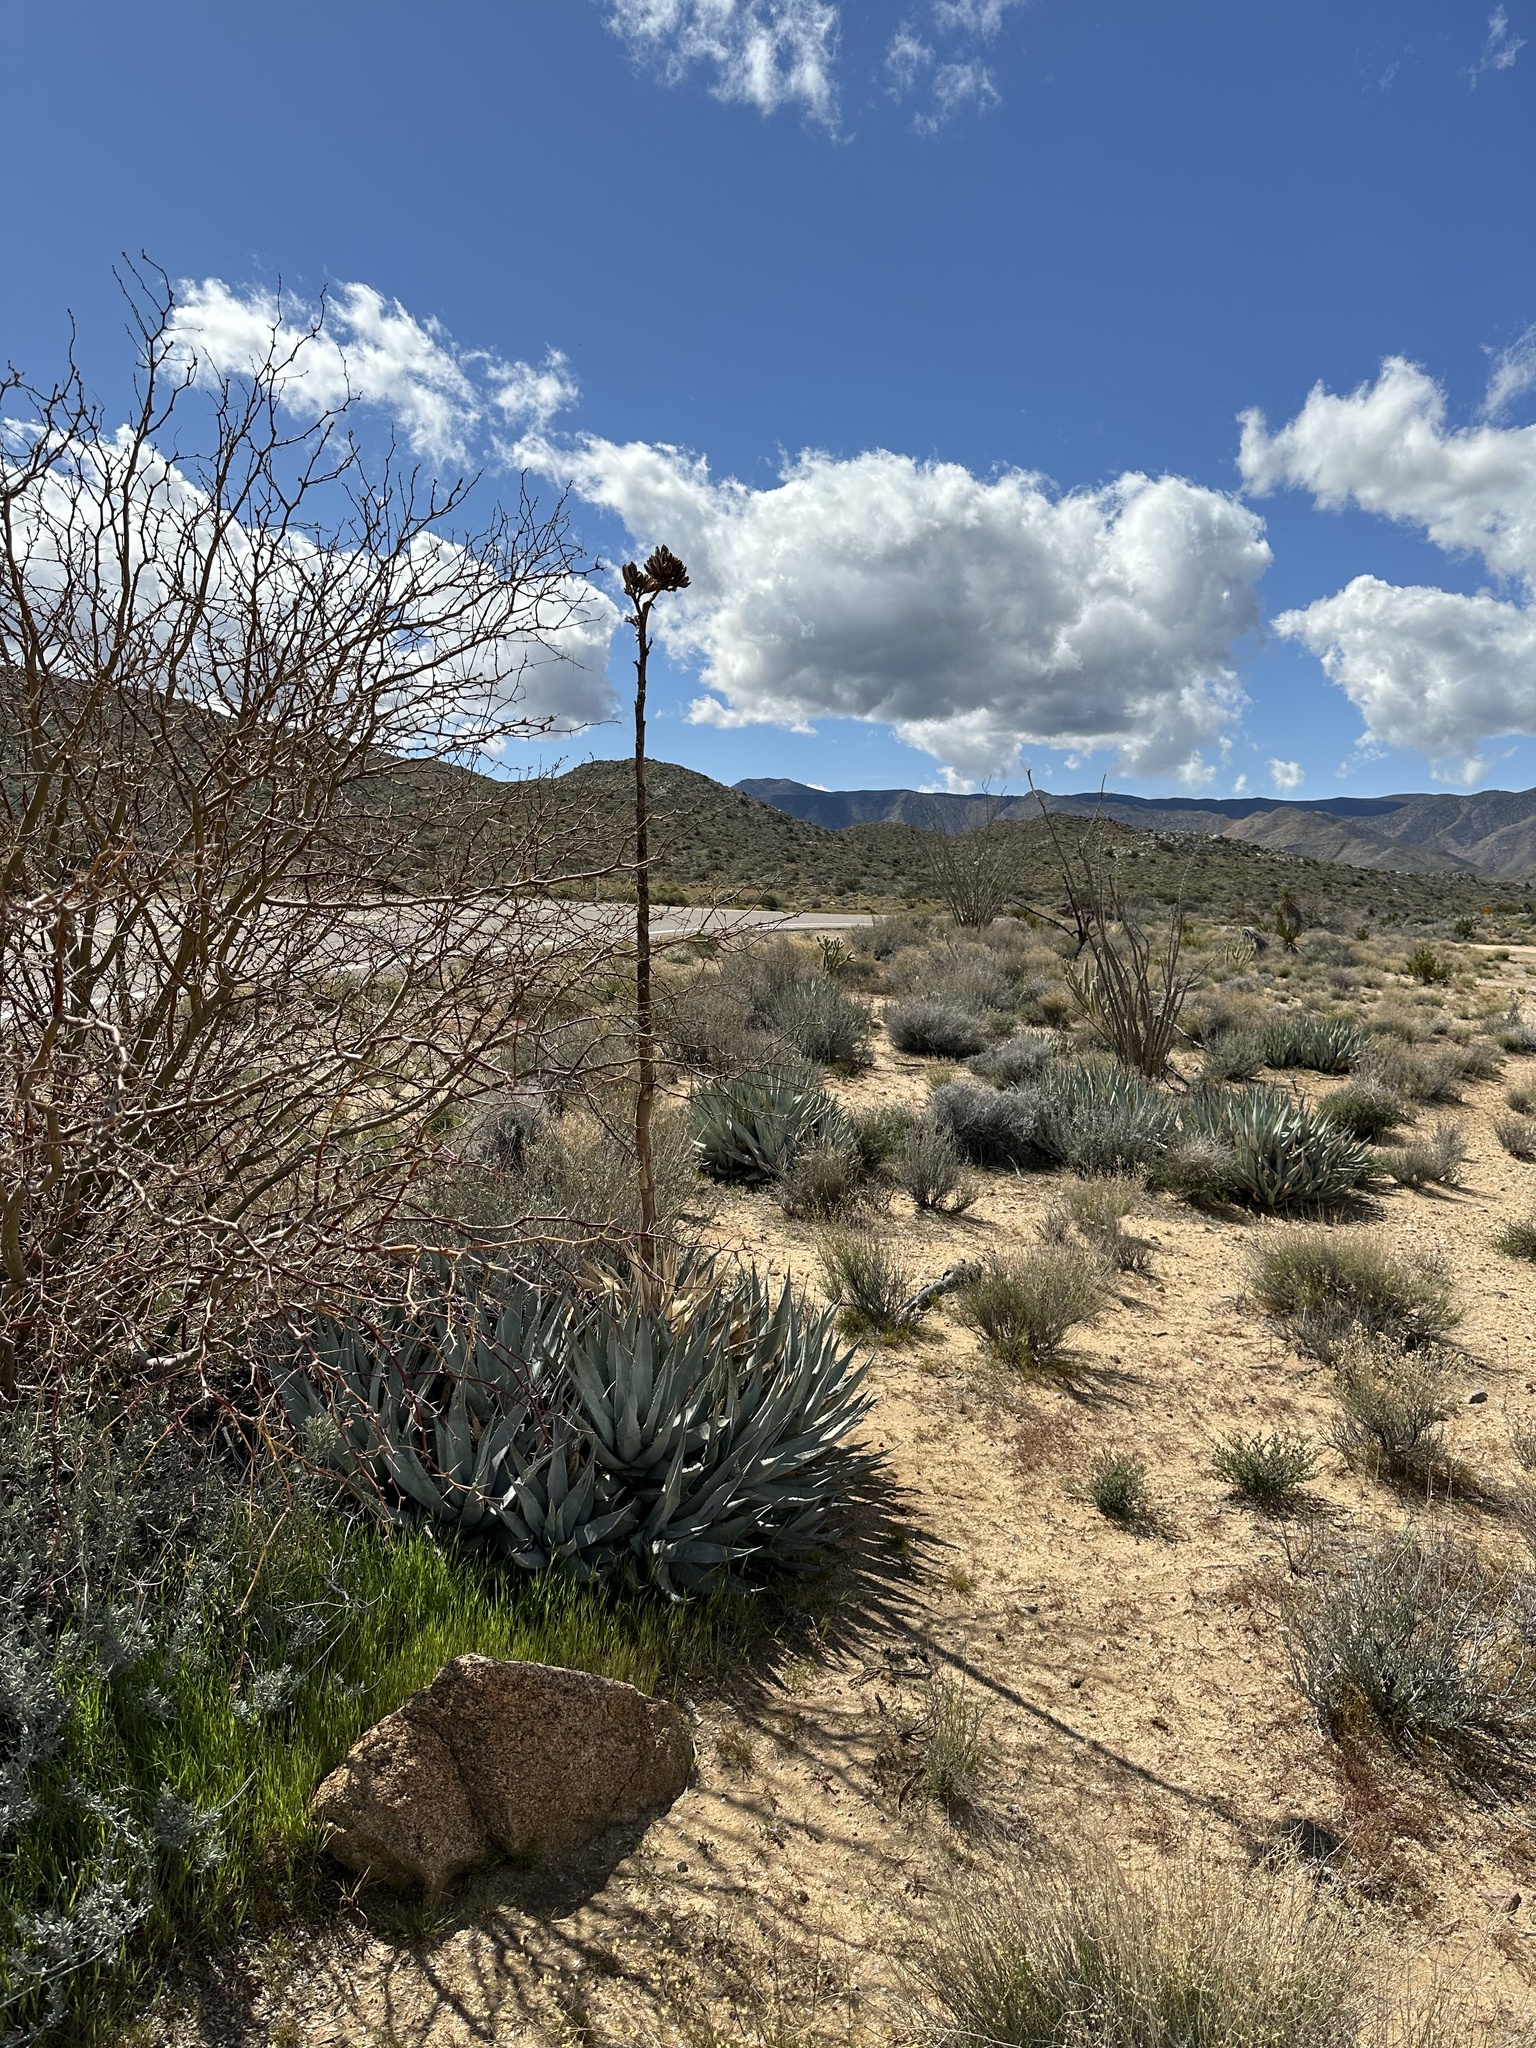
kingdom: Plantae
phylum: Tracheophyta
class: Liliopsida
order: Asparagales
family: Asparagaceae
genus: Agave
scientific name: Agave deserti
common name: Desert agave
